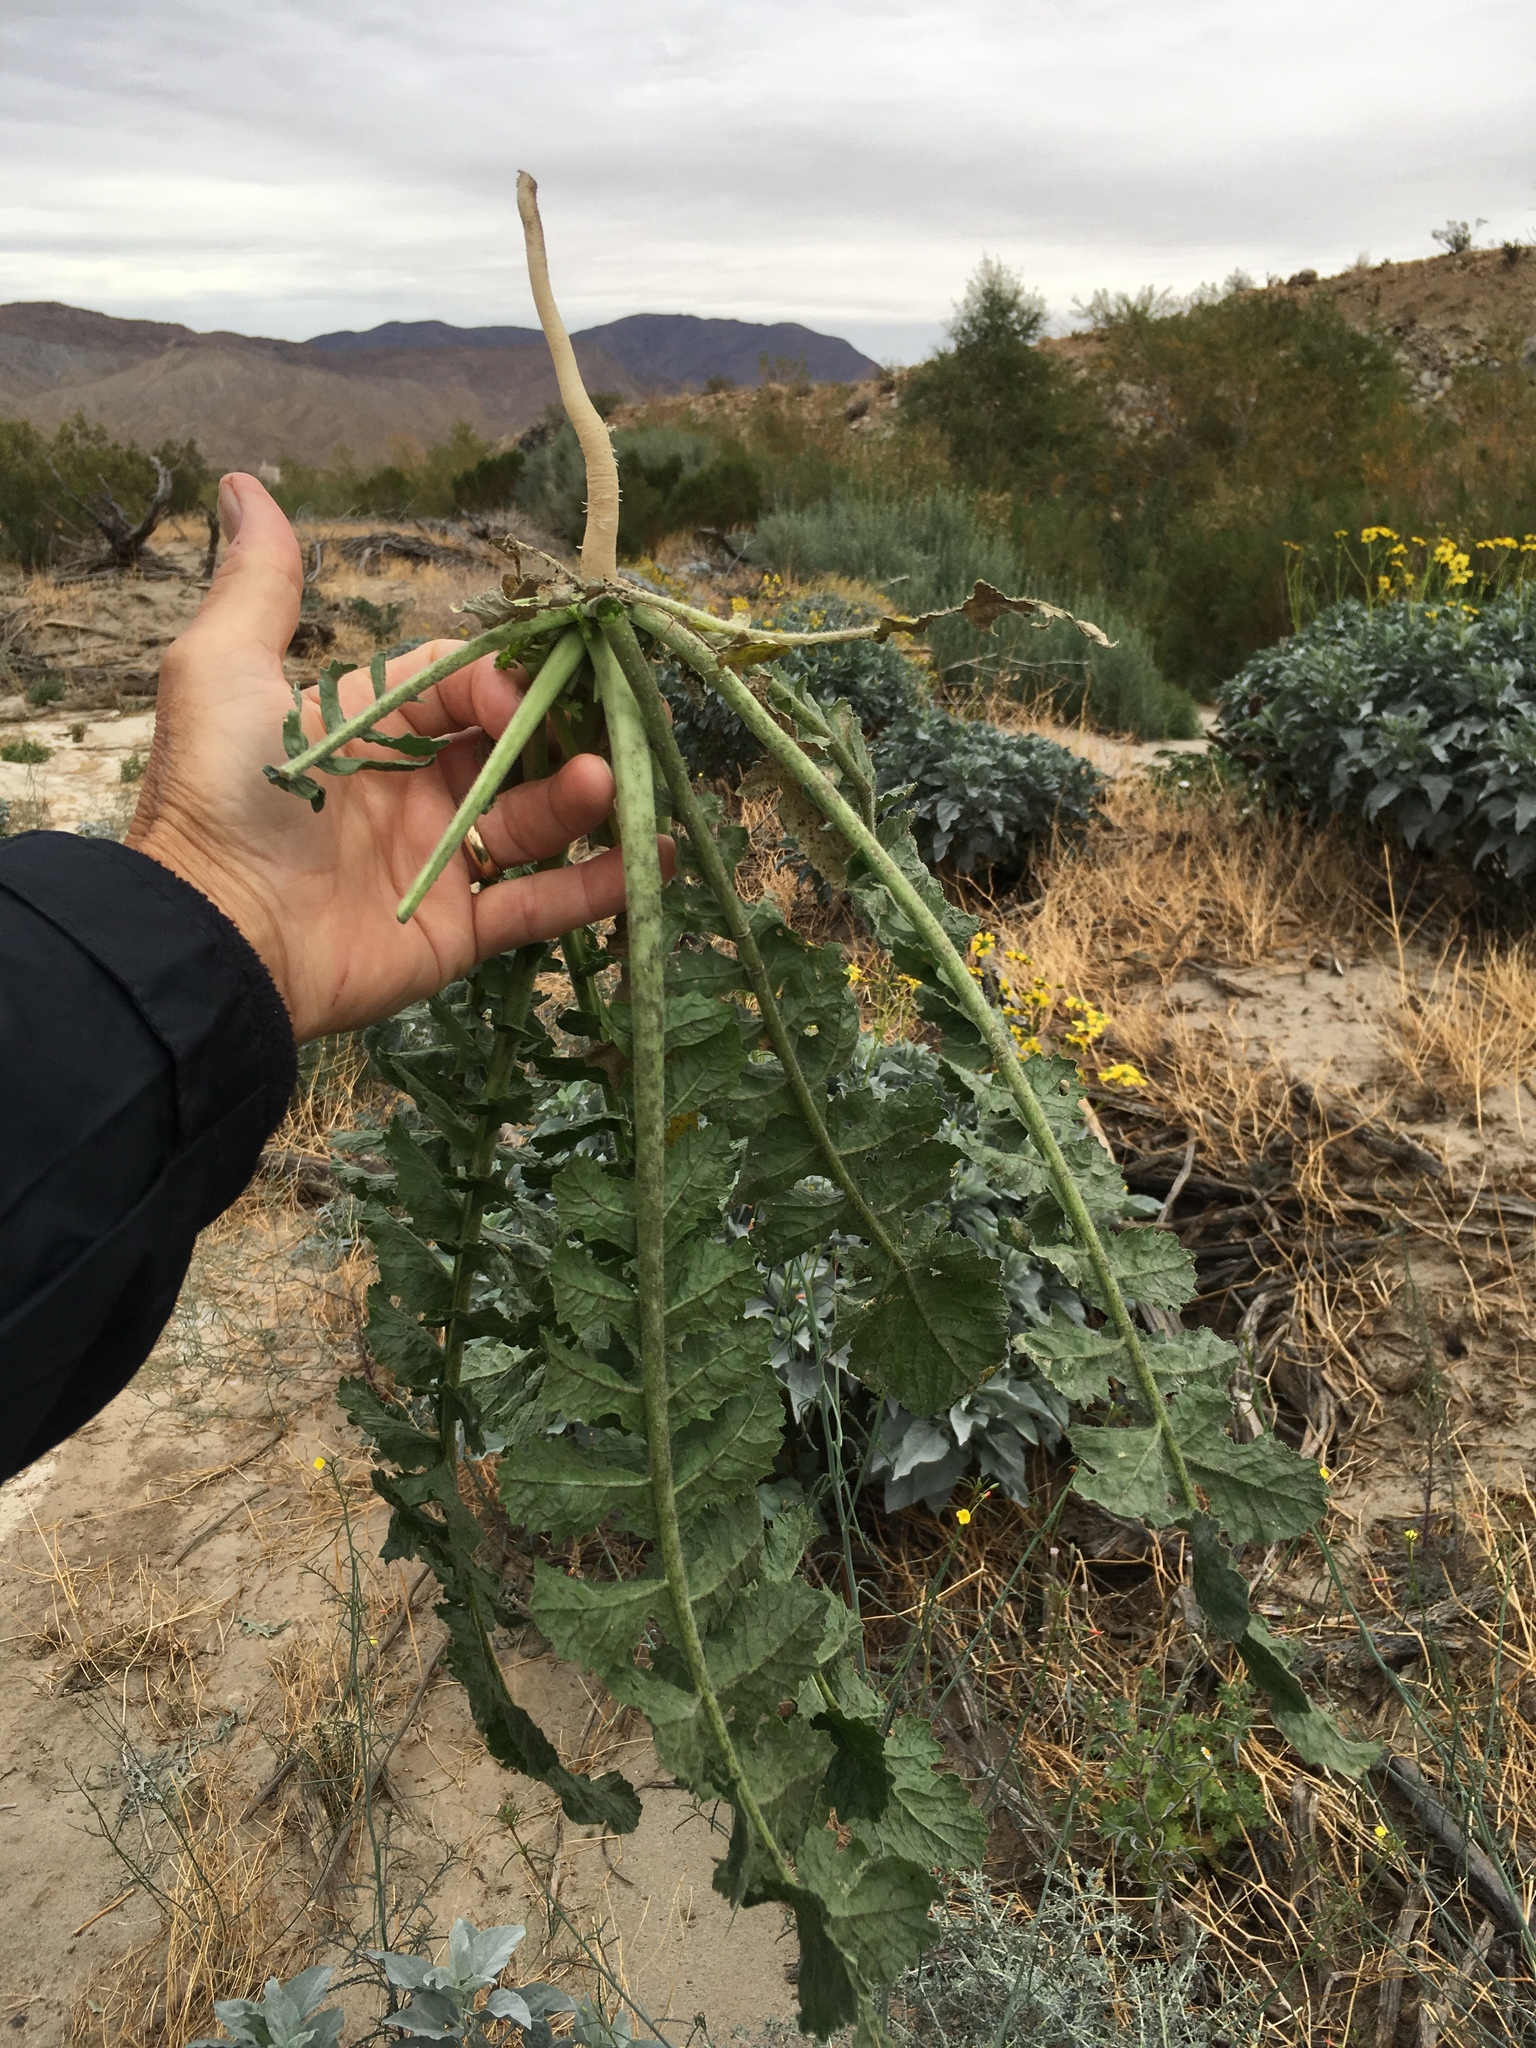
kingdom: Plantae
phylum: Tracheophyta
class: Magnoliopsida
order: Brassicales
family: Brassicaceae
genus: Brassica
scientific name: Brassica tournefortii
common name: Pale cabbage
